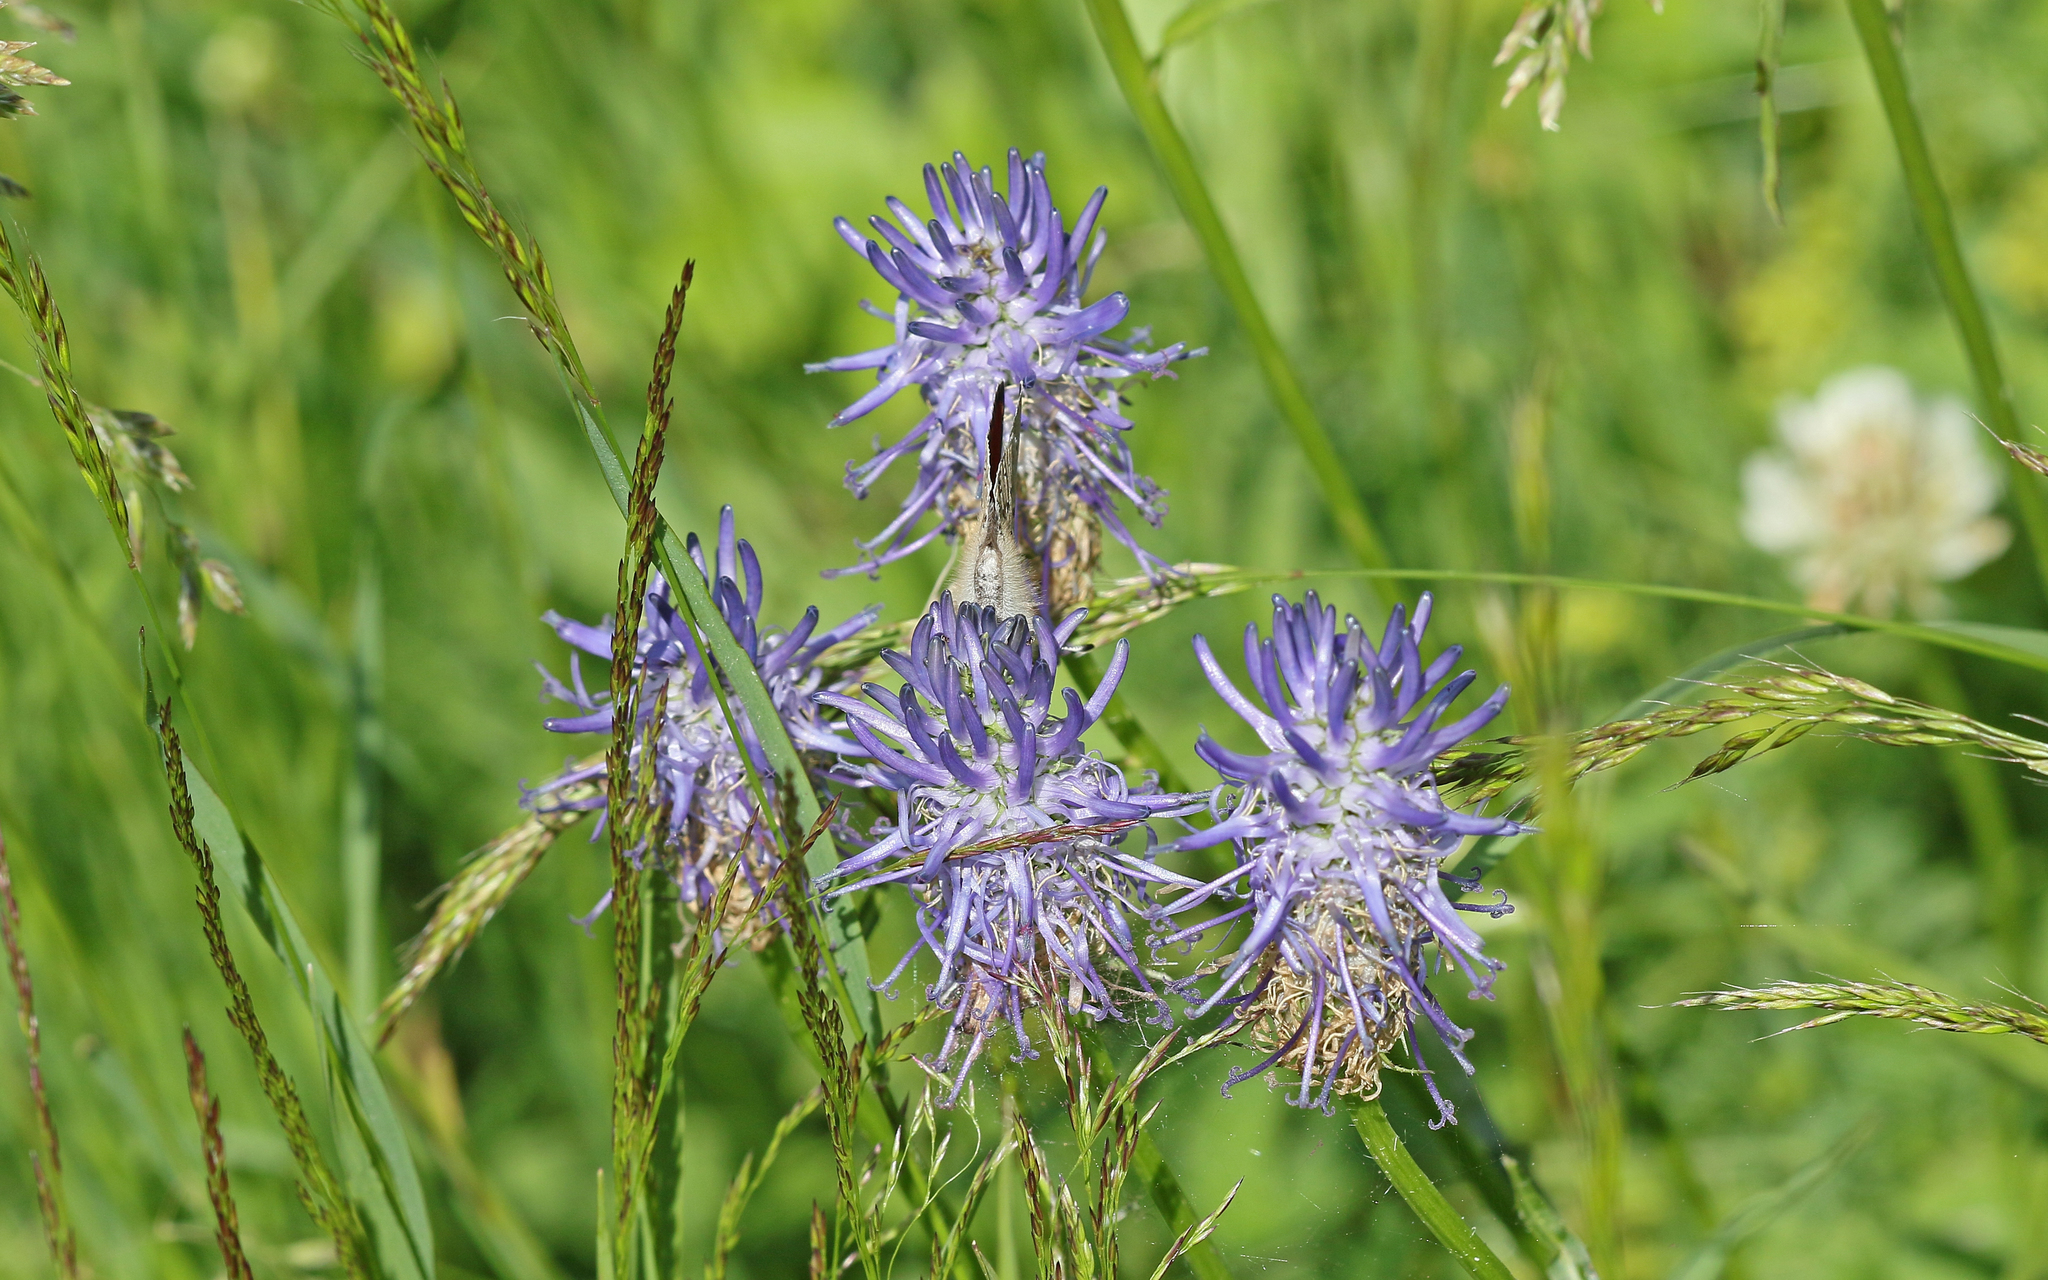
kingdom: Plantae
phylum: Tracheophyta
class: Magnoliopsida
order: Asterales
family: Campanulaceae
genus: Phyteuma
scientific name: Phyteuma betonicifolium
